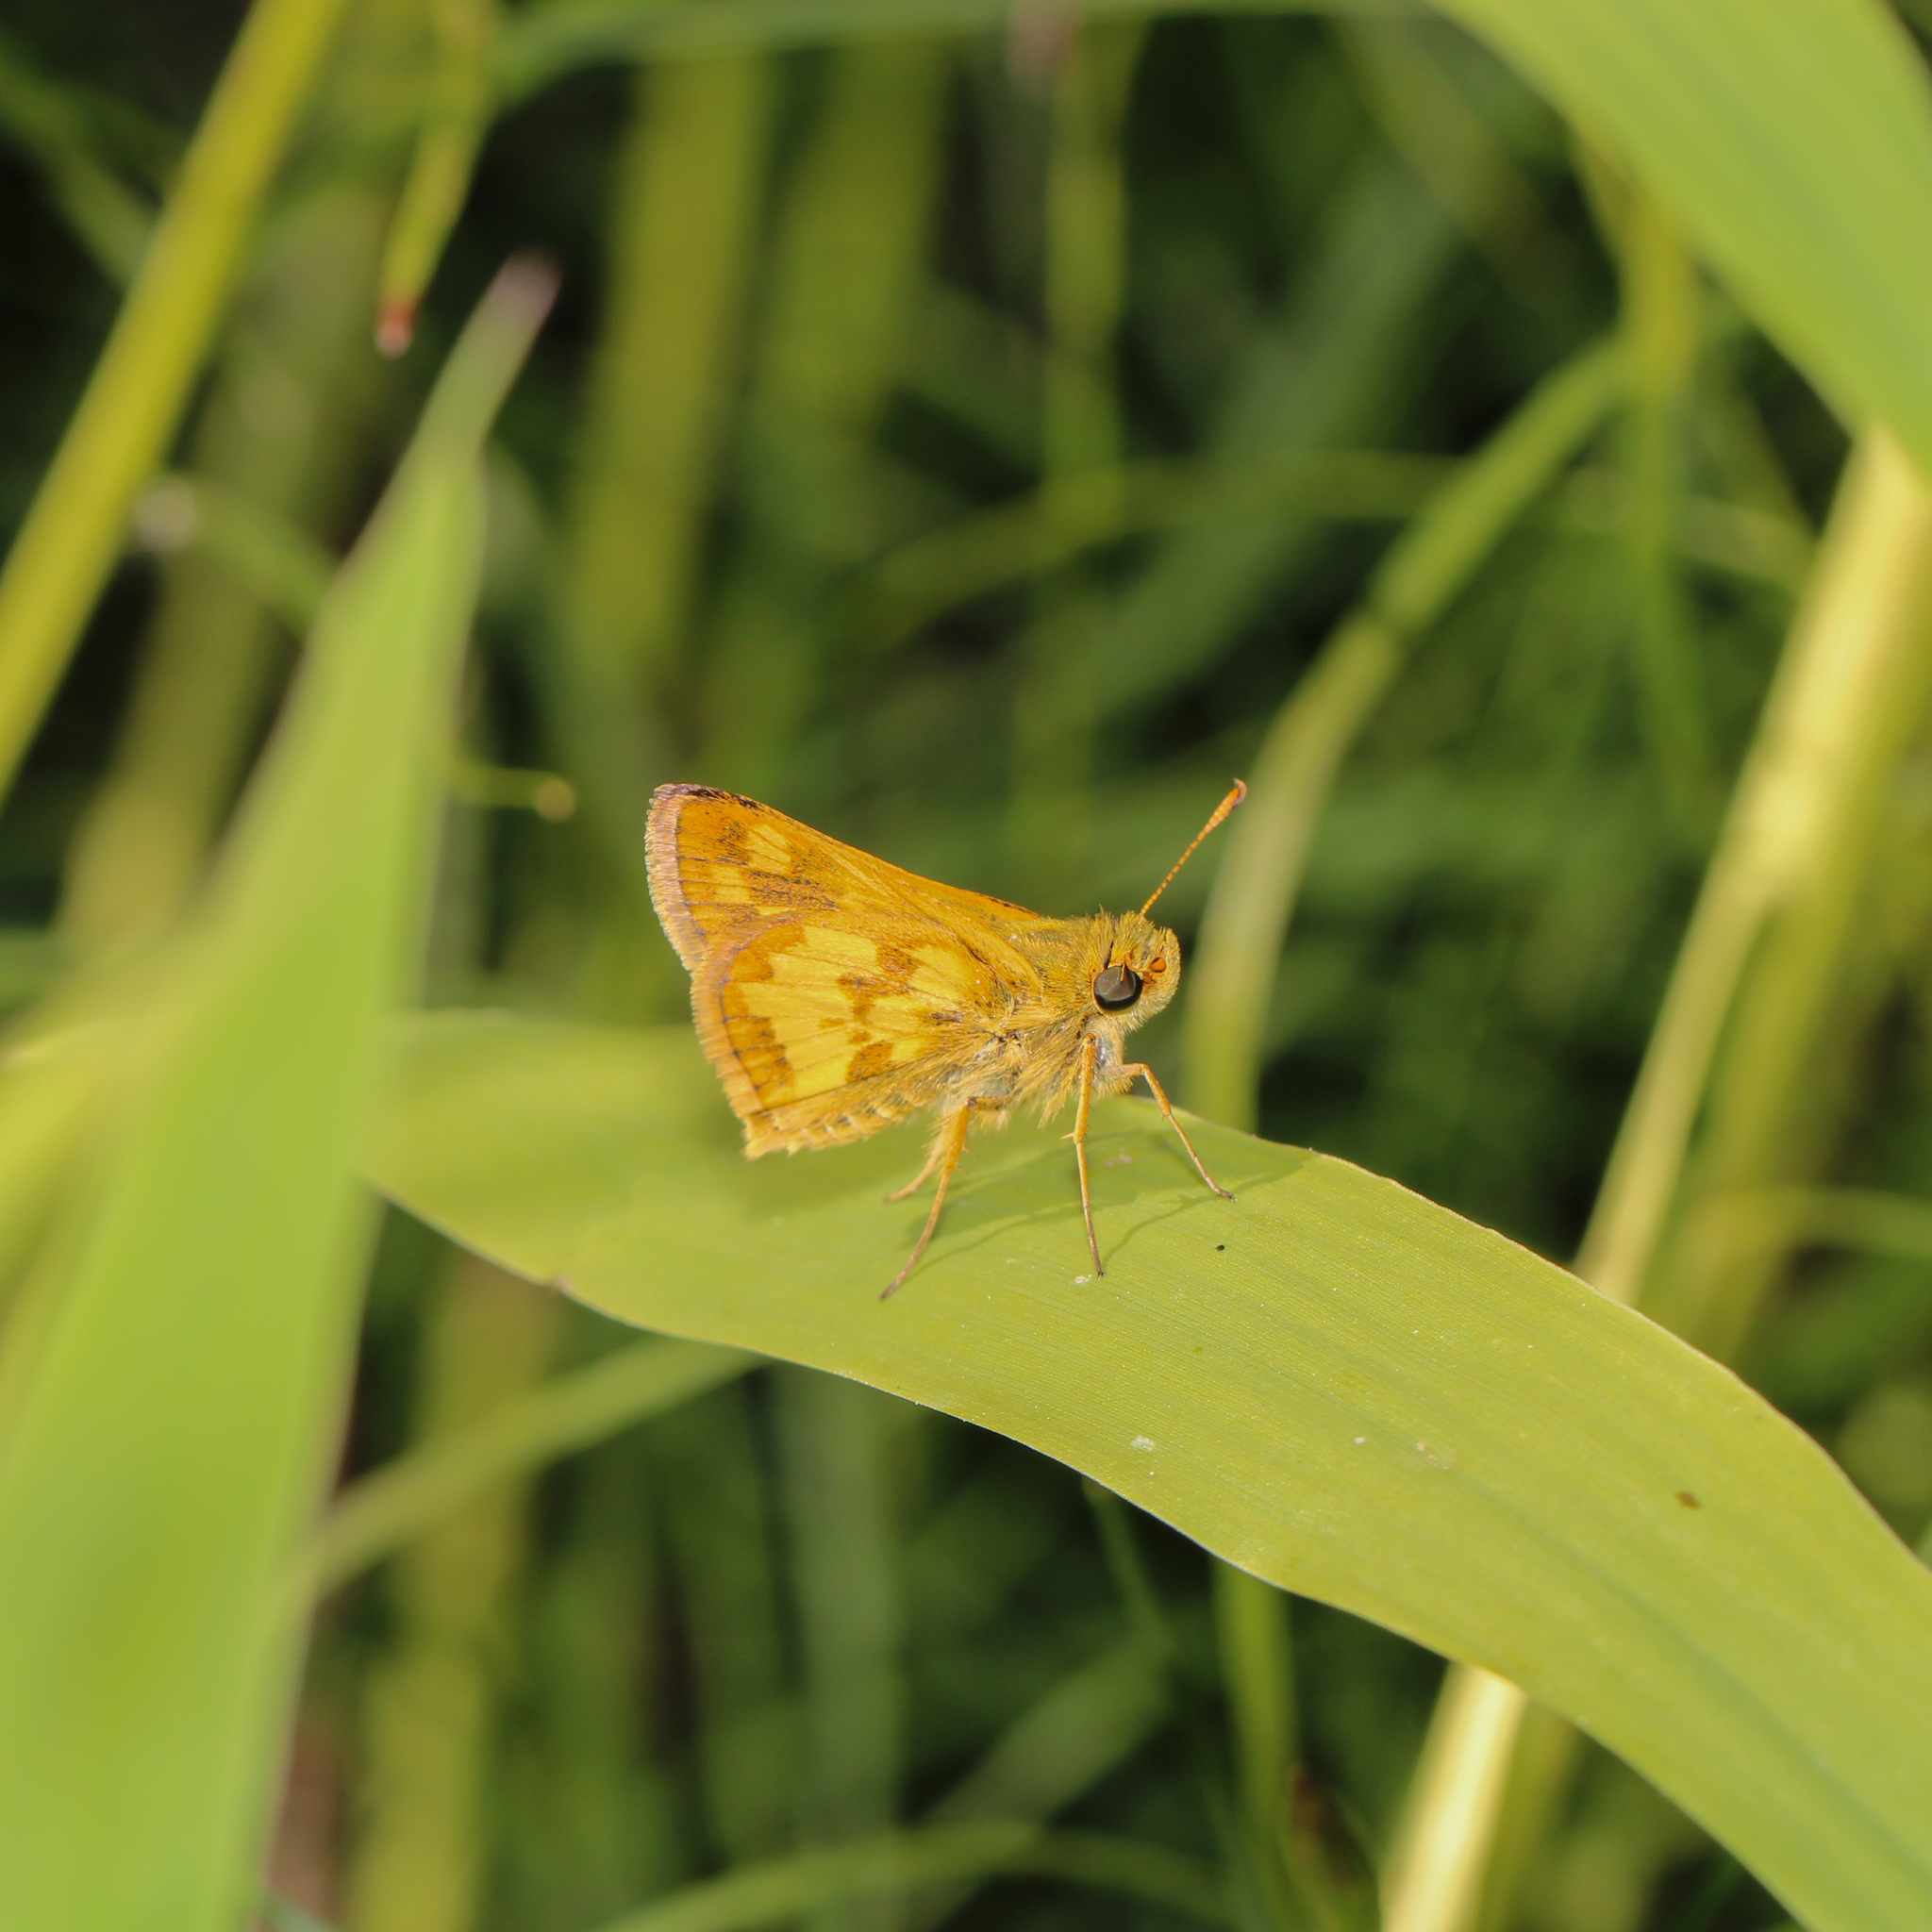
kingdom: Animalia
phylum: Arthropoda
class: Insecta
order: Lepidoptera
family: Hesperiidae
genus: Polites
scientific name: Polites coras
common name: Peck's skipper
